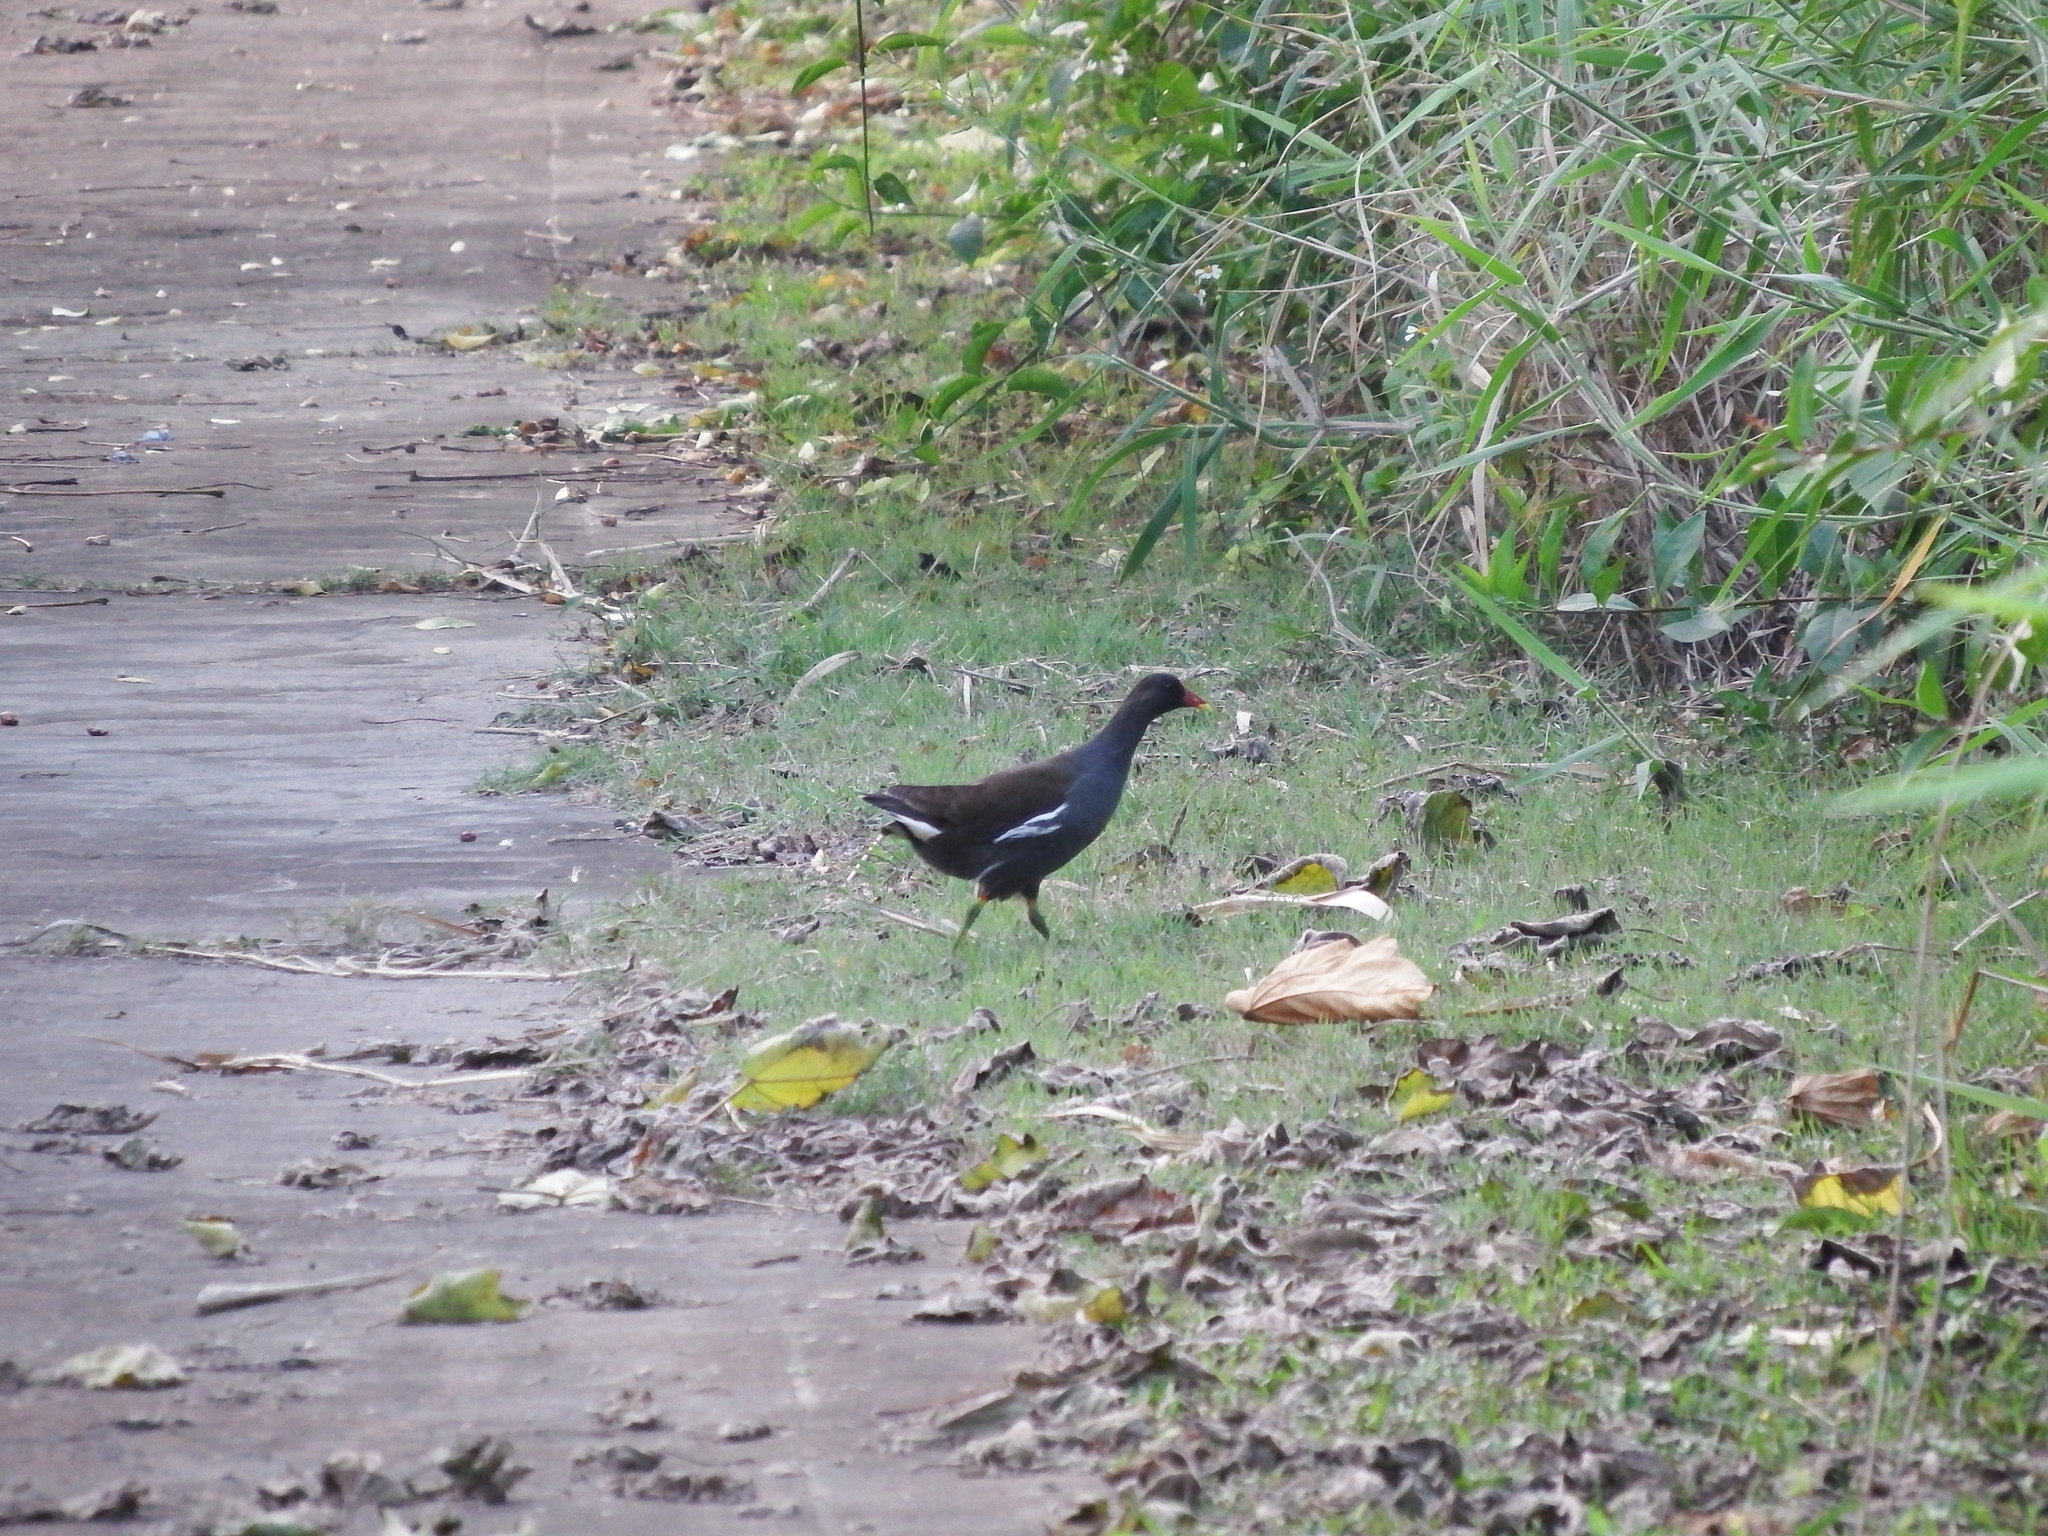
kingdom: Animalia
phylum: Chordata
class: Aves
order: Gruiformes
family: Rallidae
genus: Gallinula
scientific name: Gallinula chloropus
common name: Common moorhen
